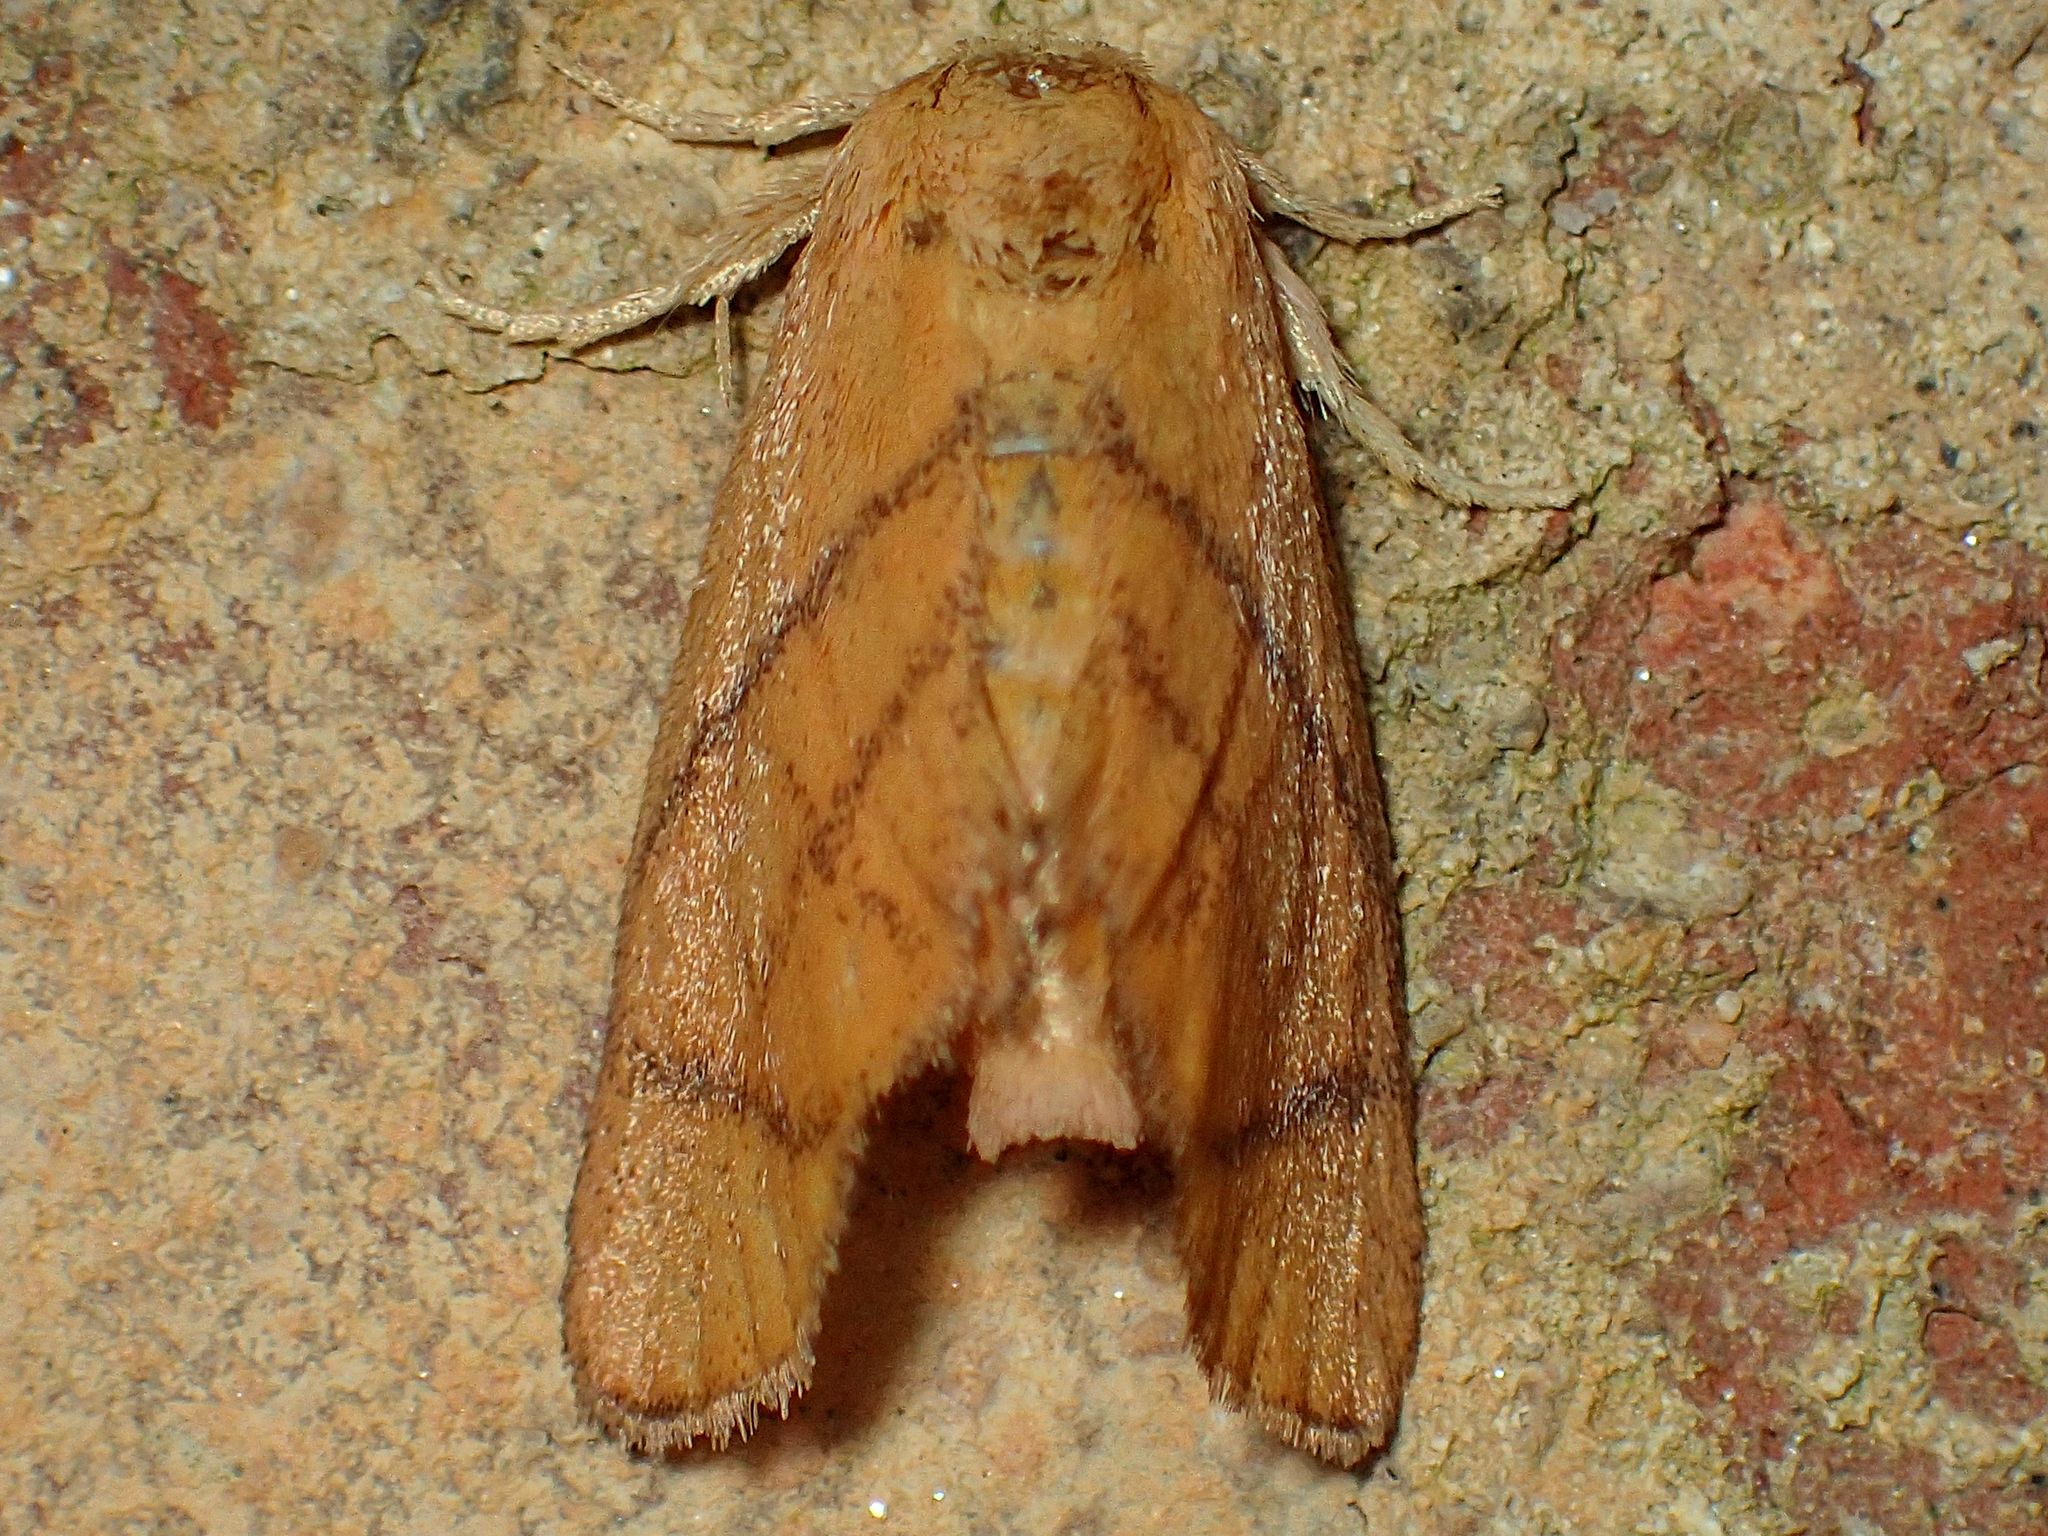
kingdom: Animalia
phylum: Arthropoda
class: Insecta
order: Lepidoptera
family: Limacodidae
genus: Apoda
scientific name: Apoda y-inversa
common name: Yellow-collared slug moth
